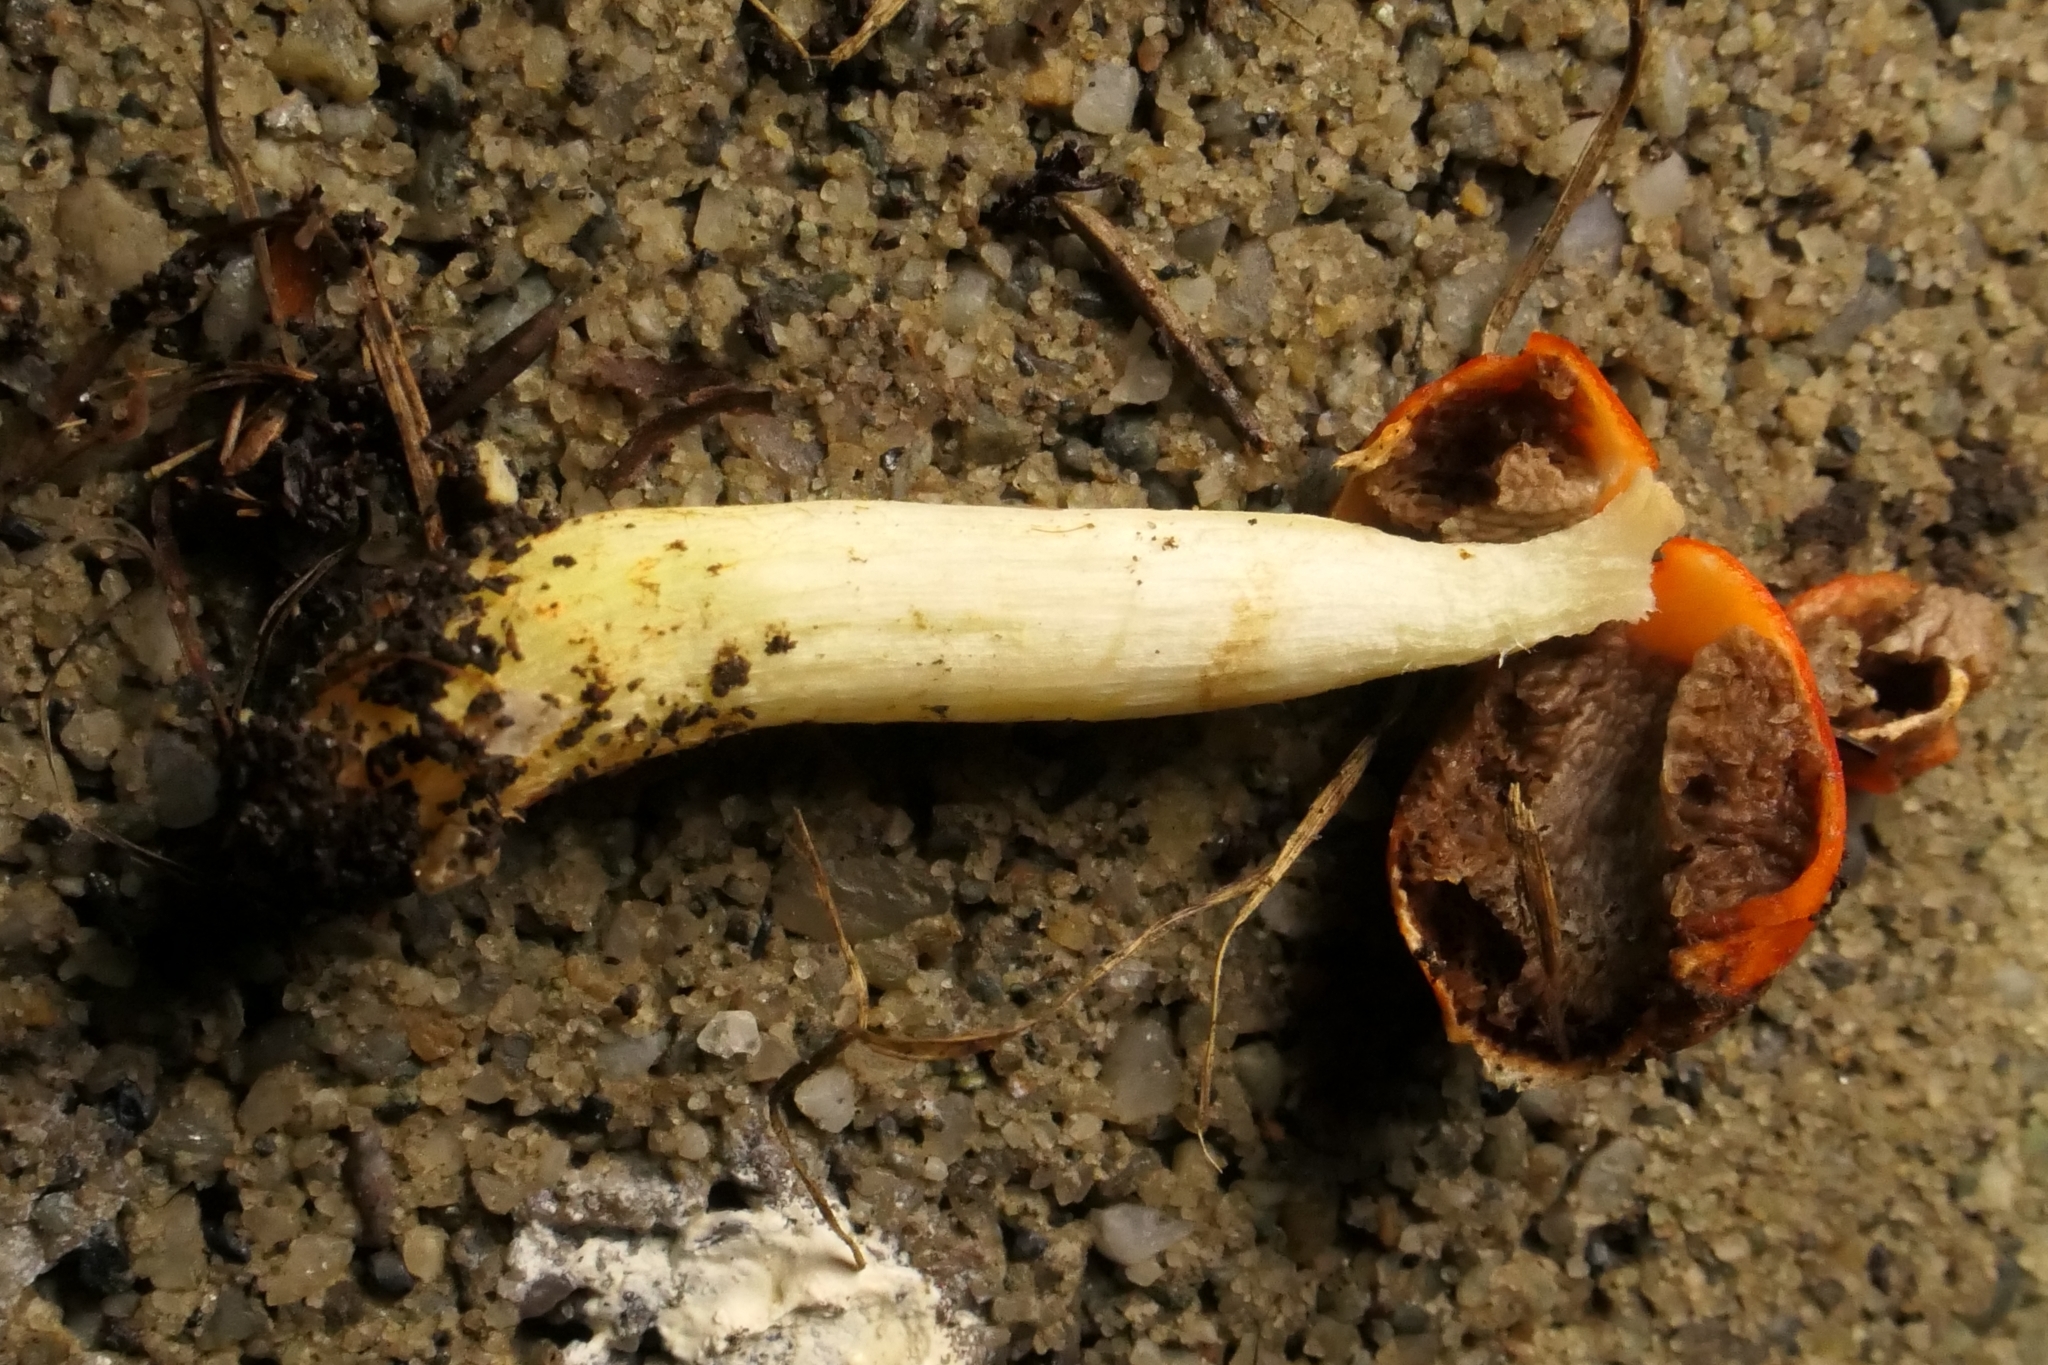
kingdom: Fungi
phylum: Basidiomycota
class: Agaricomycetes
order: Agaricales
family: Strophariaceae
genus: Leratiomyces
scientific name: Leratiomyces erythrocephalus
